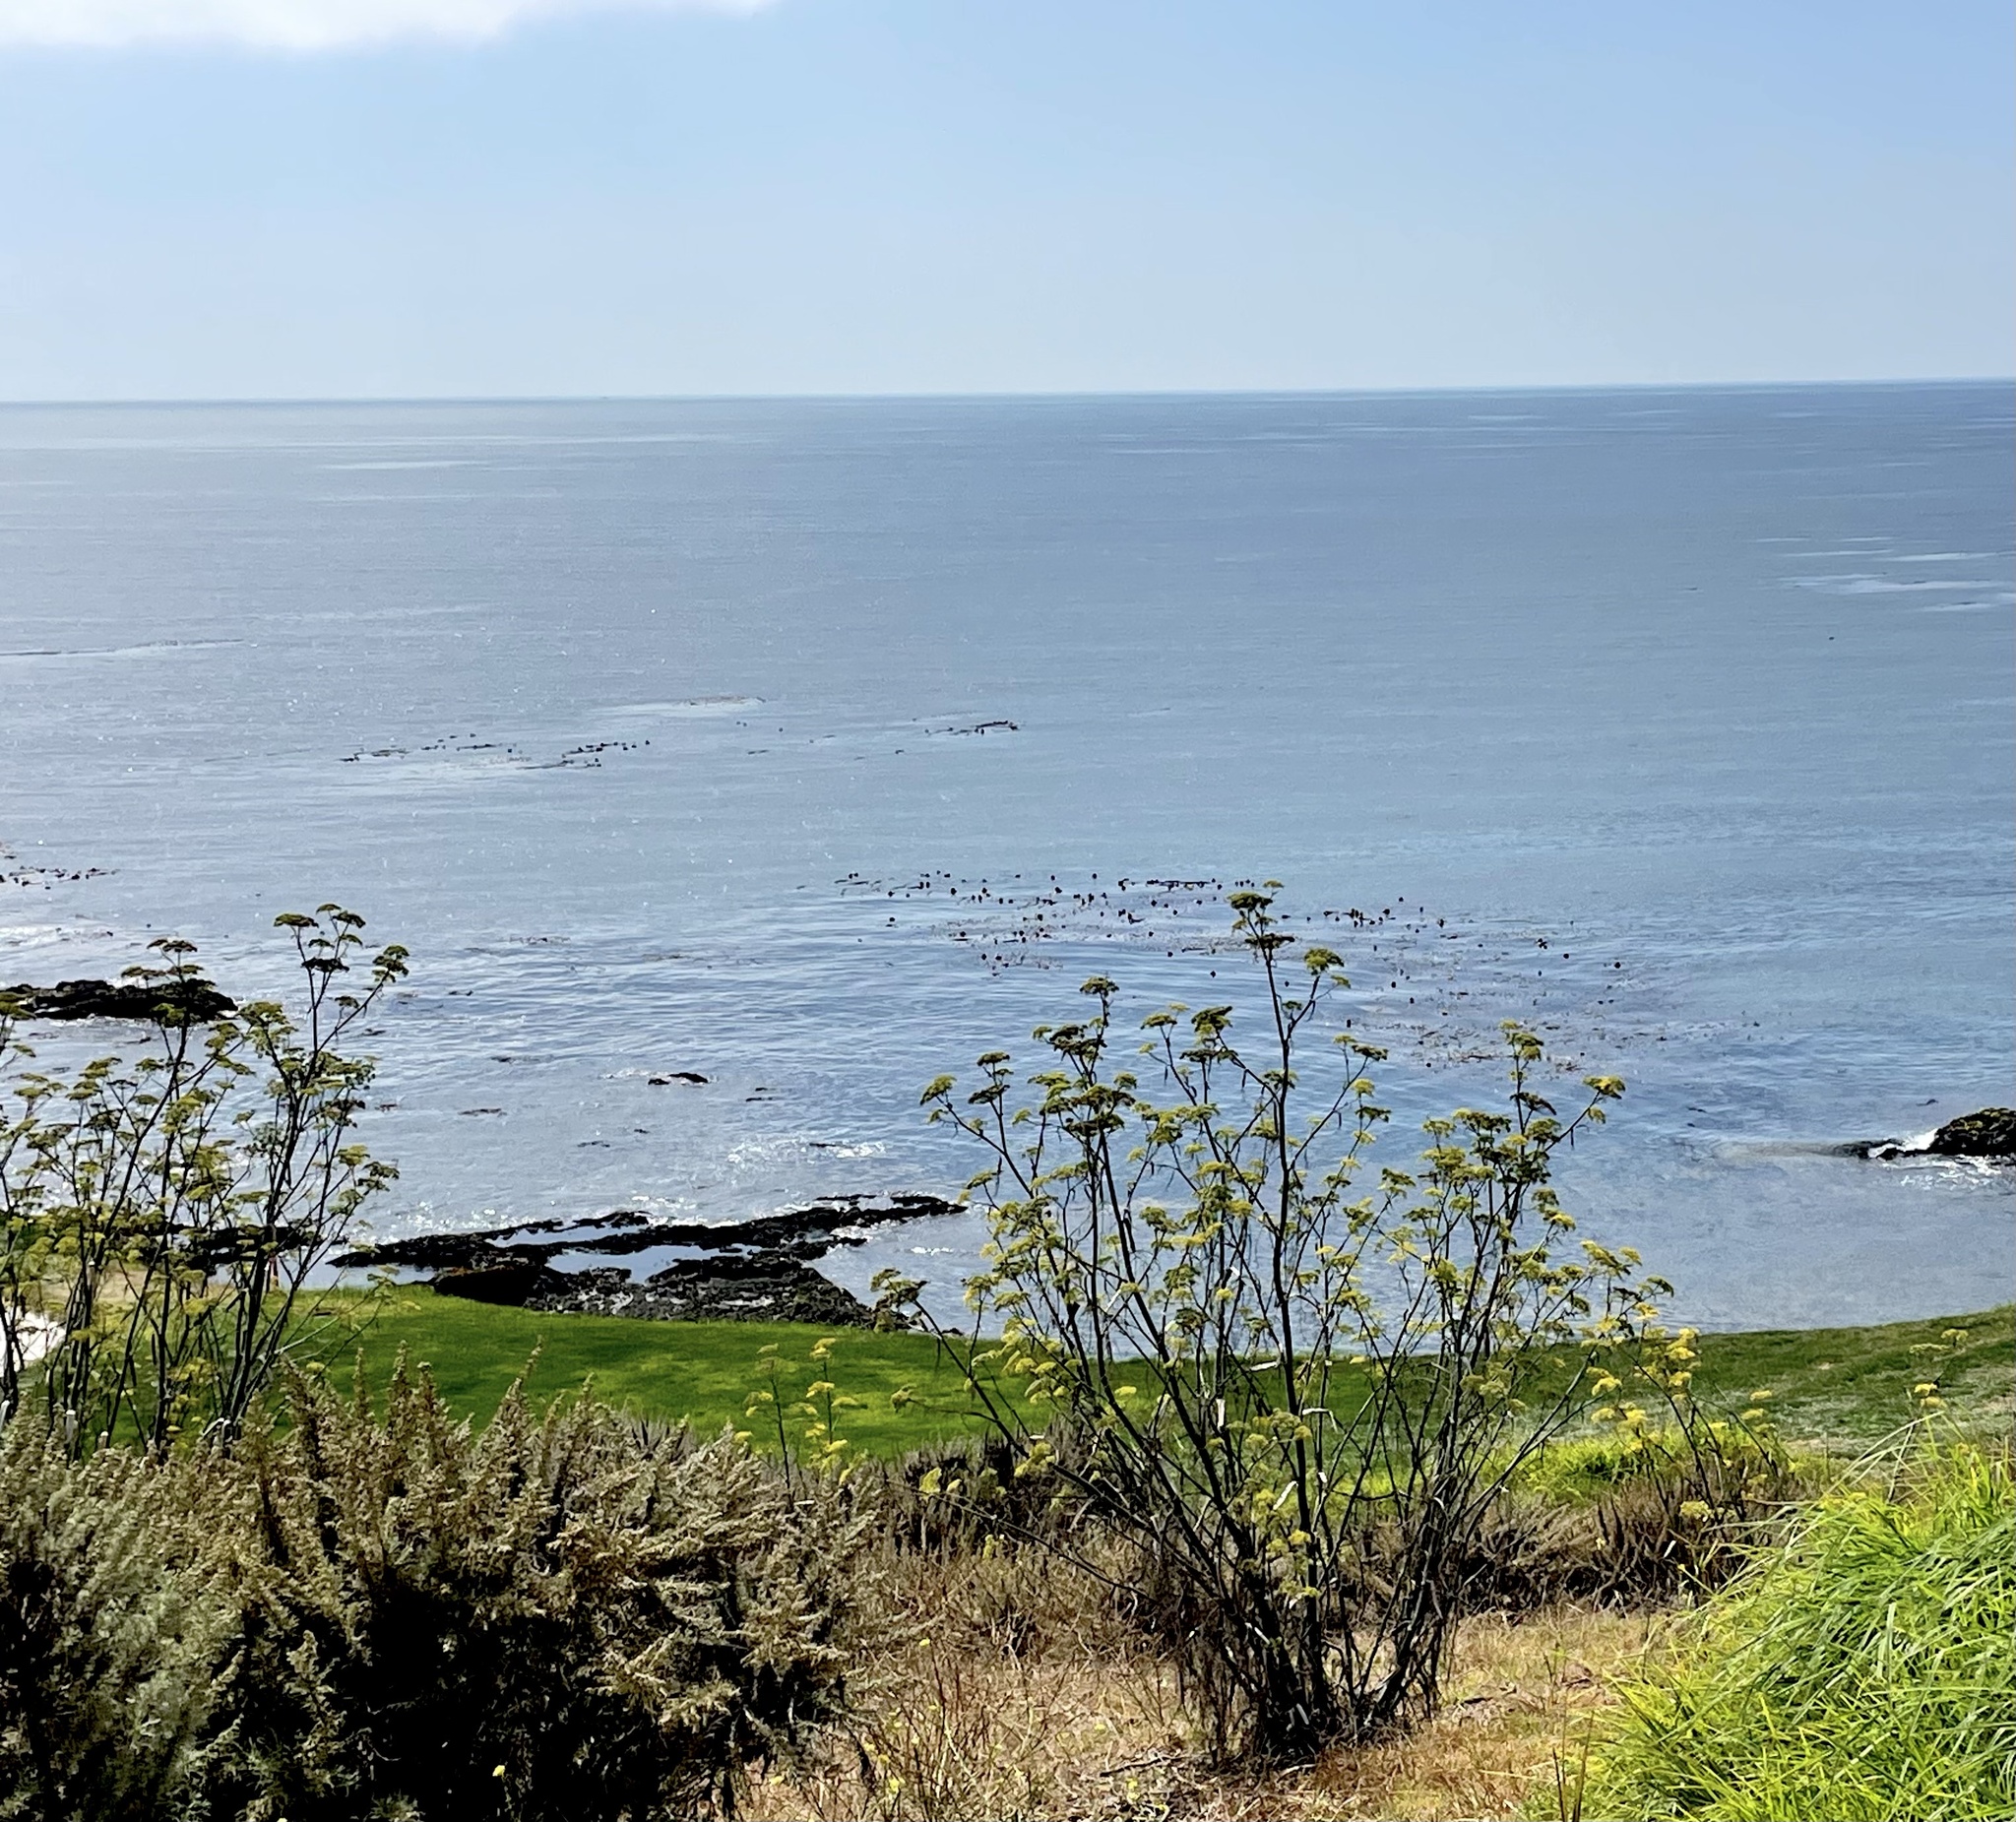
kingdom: Plantae
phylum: Tracheophyta
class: Magnoliopsida
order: Apiales
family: Apiaceae
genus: Foeniculum
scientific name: Foeniculum vulgare
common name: Fennel
